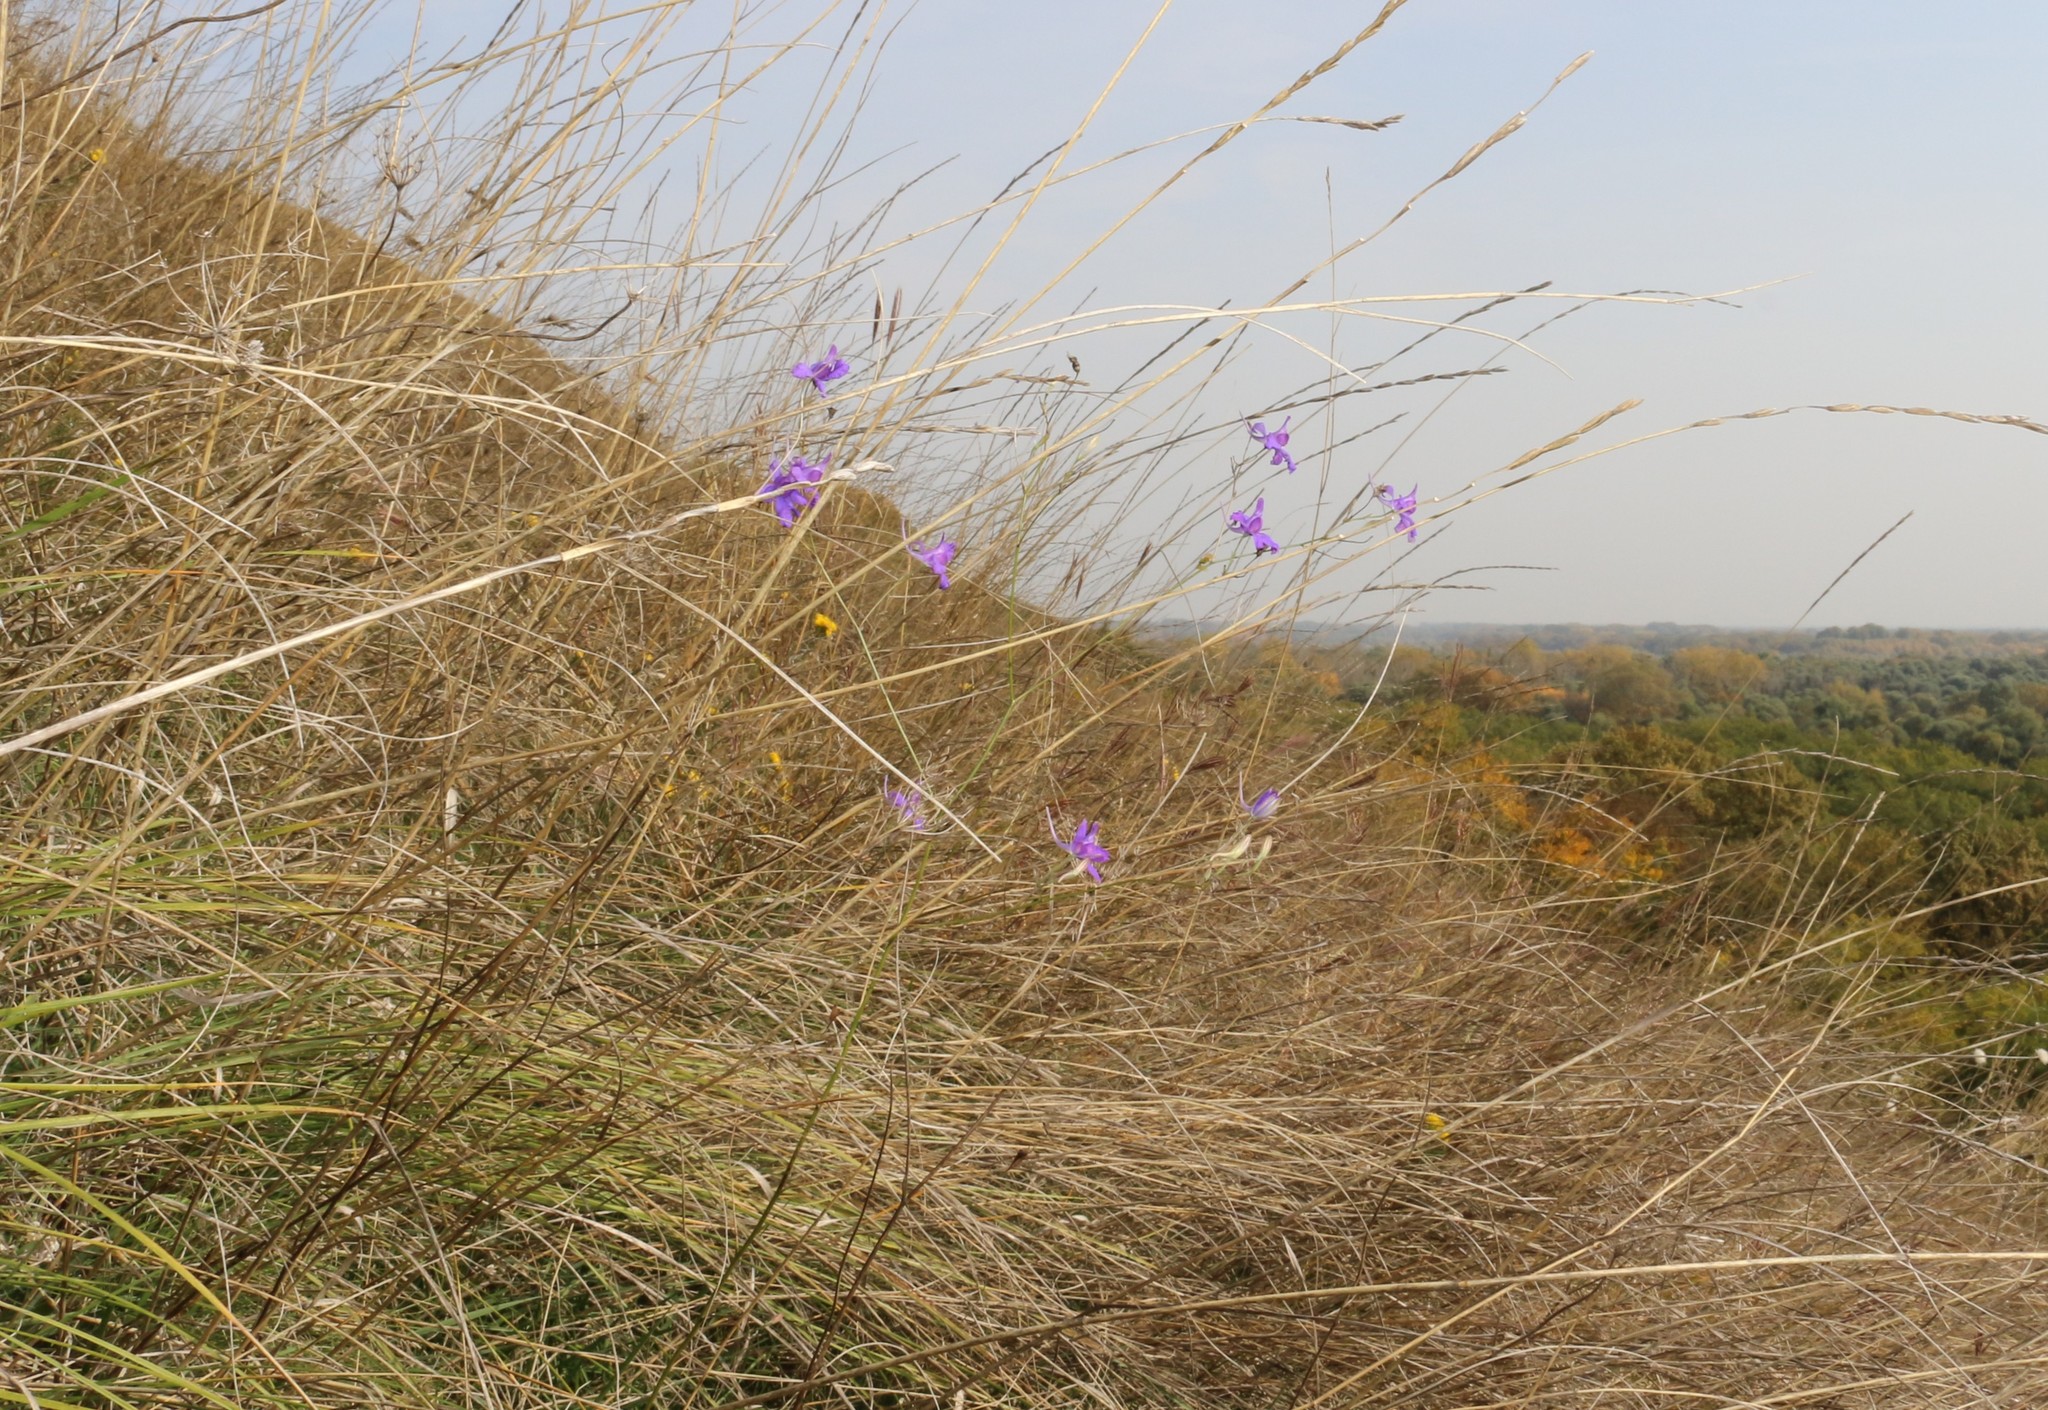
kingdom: Plantae
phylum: Tracheophyta
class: Magnoliopsida
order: Ranunculales
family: Ranunculaceae
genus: Delphinium
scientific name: Delphinium consolida
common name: Branching larkspur
